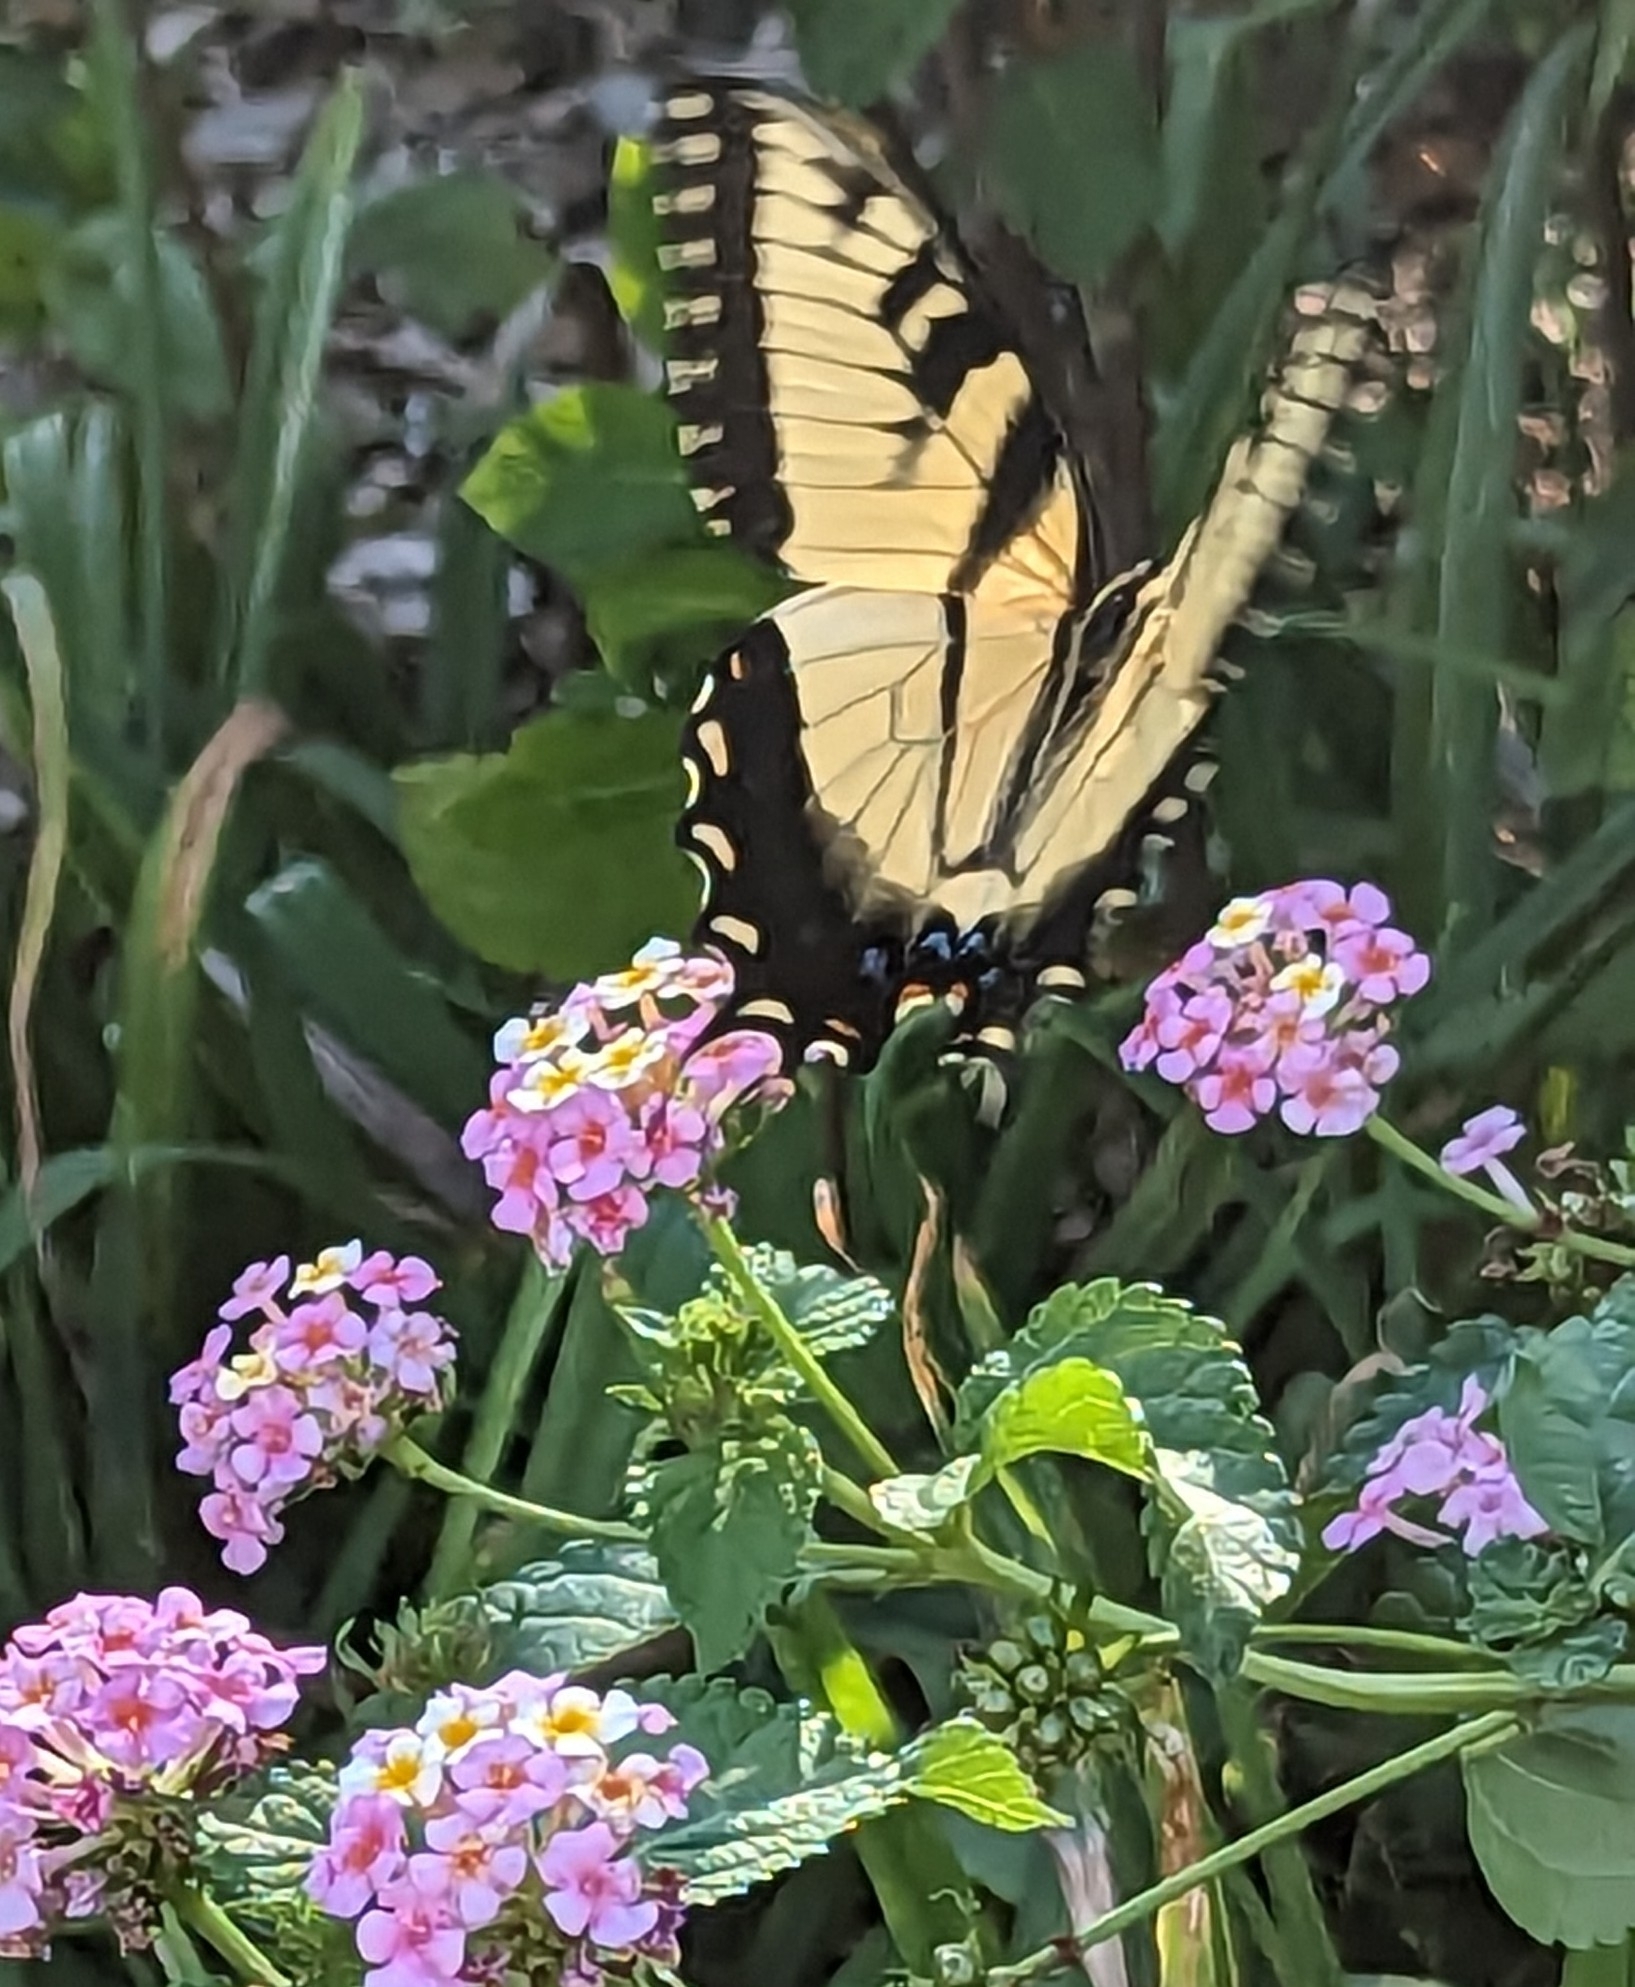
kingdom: Animalia
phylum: Arthropoda
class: Insecta
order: Lepidoptera
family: Papilionidae
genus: Papilio
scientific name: Papilio glaucus
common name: Tiger swallowtail
